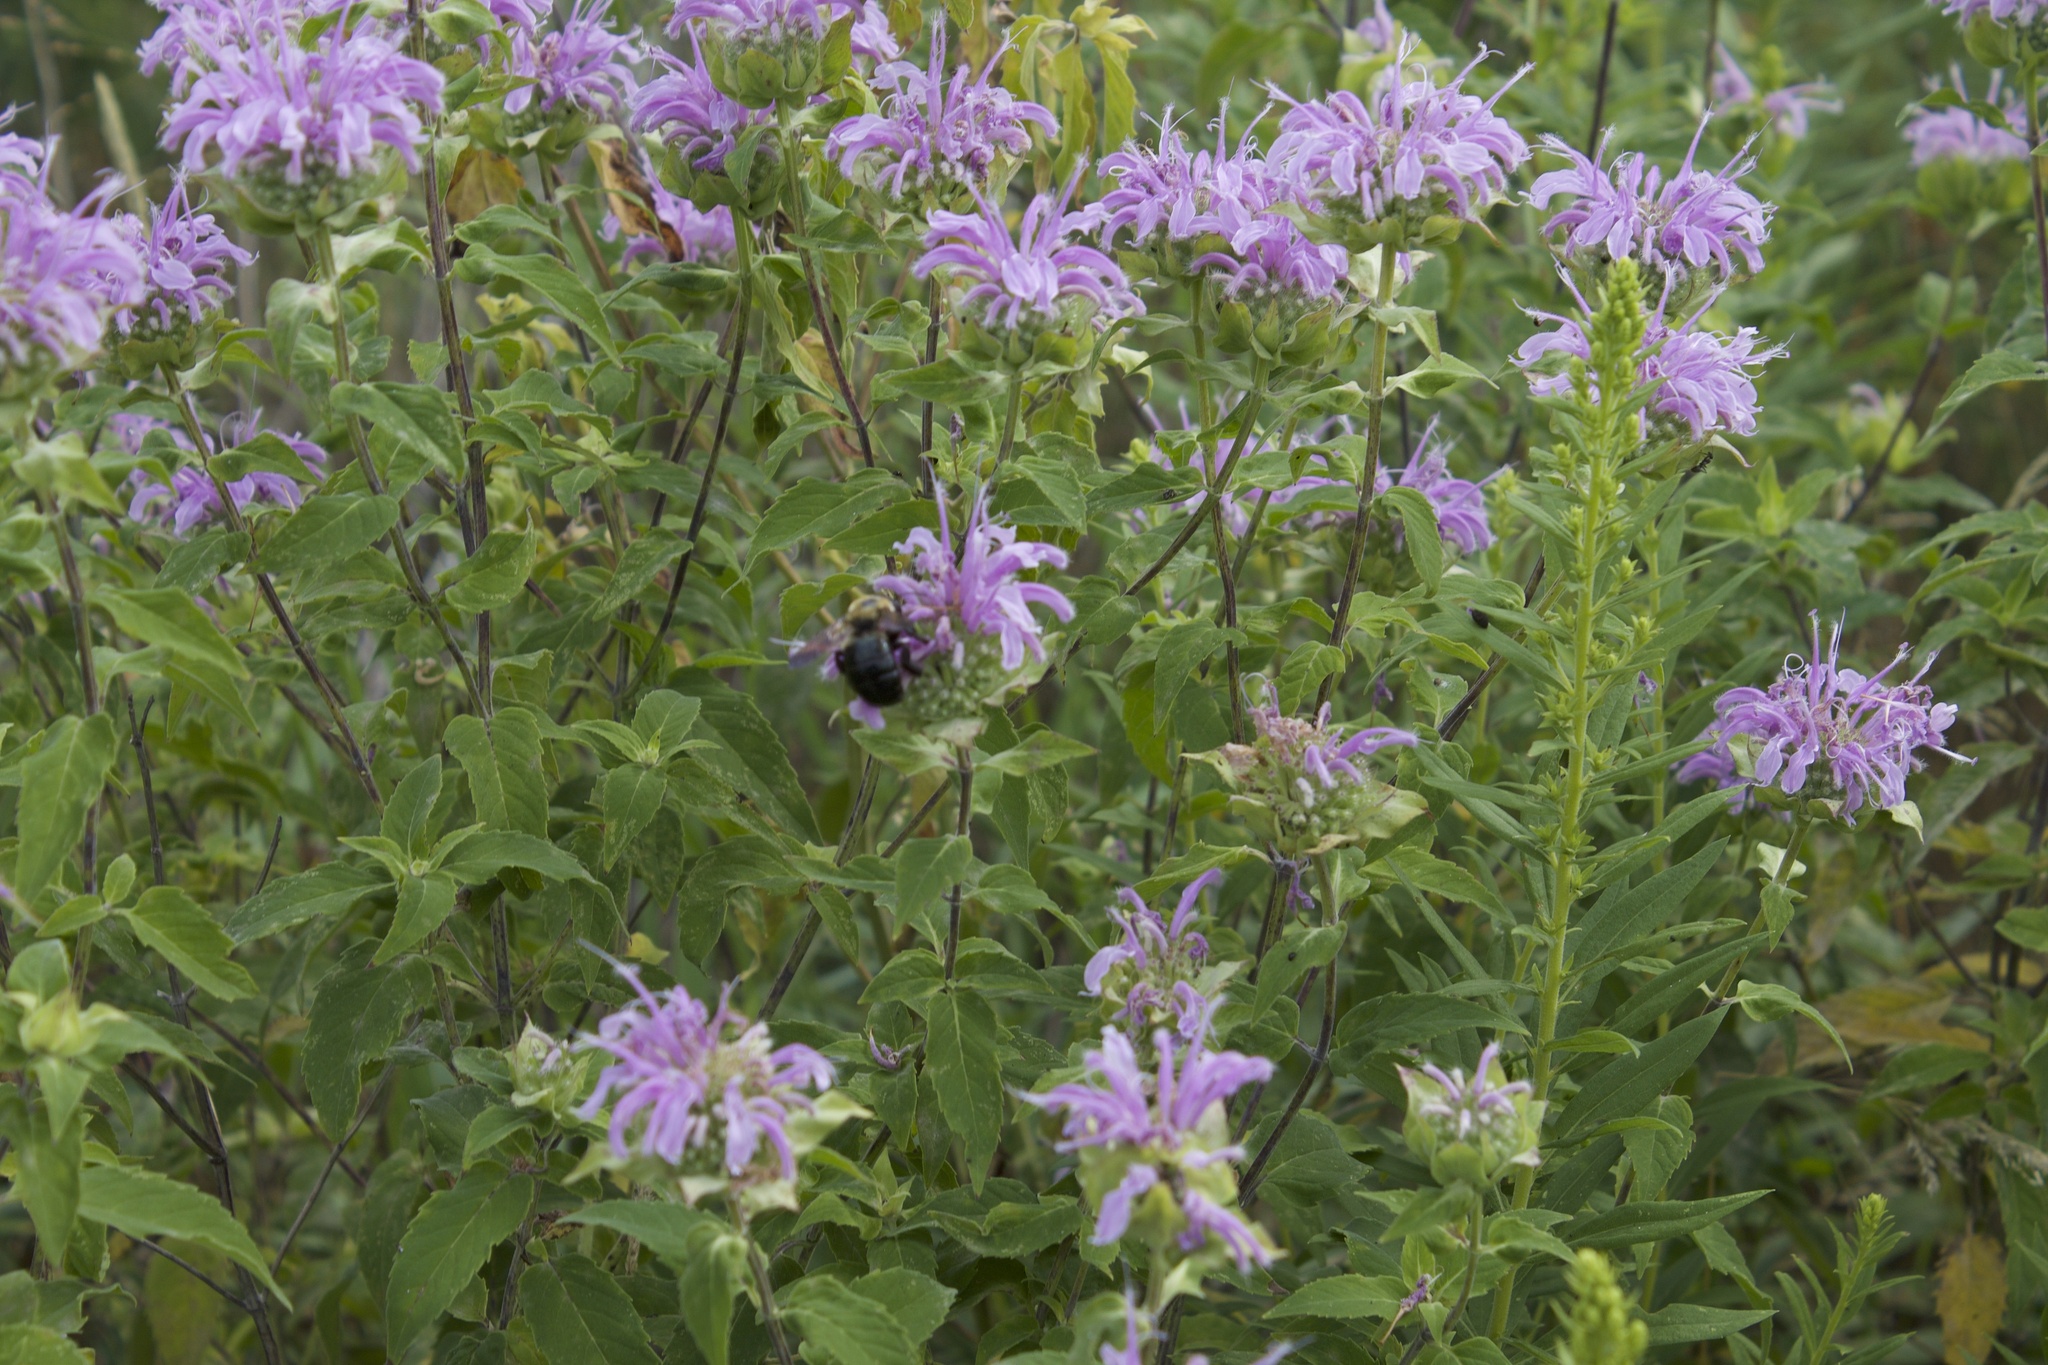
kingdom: Animalia
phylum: Arthropoda
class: Insecta
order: Hymenoptera
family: Apidae
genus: Xylocopa
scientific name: Xylocopa virginica
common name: Carpenter bee
